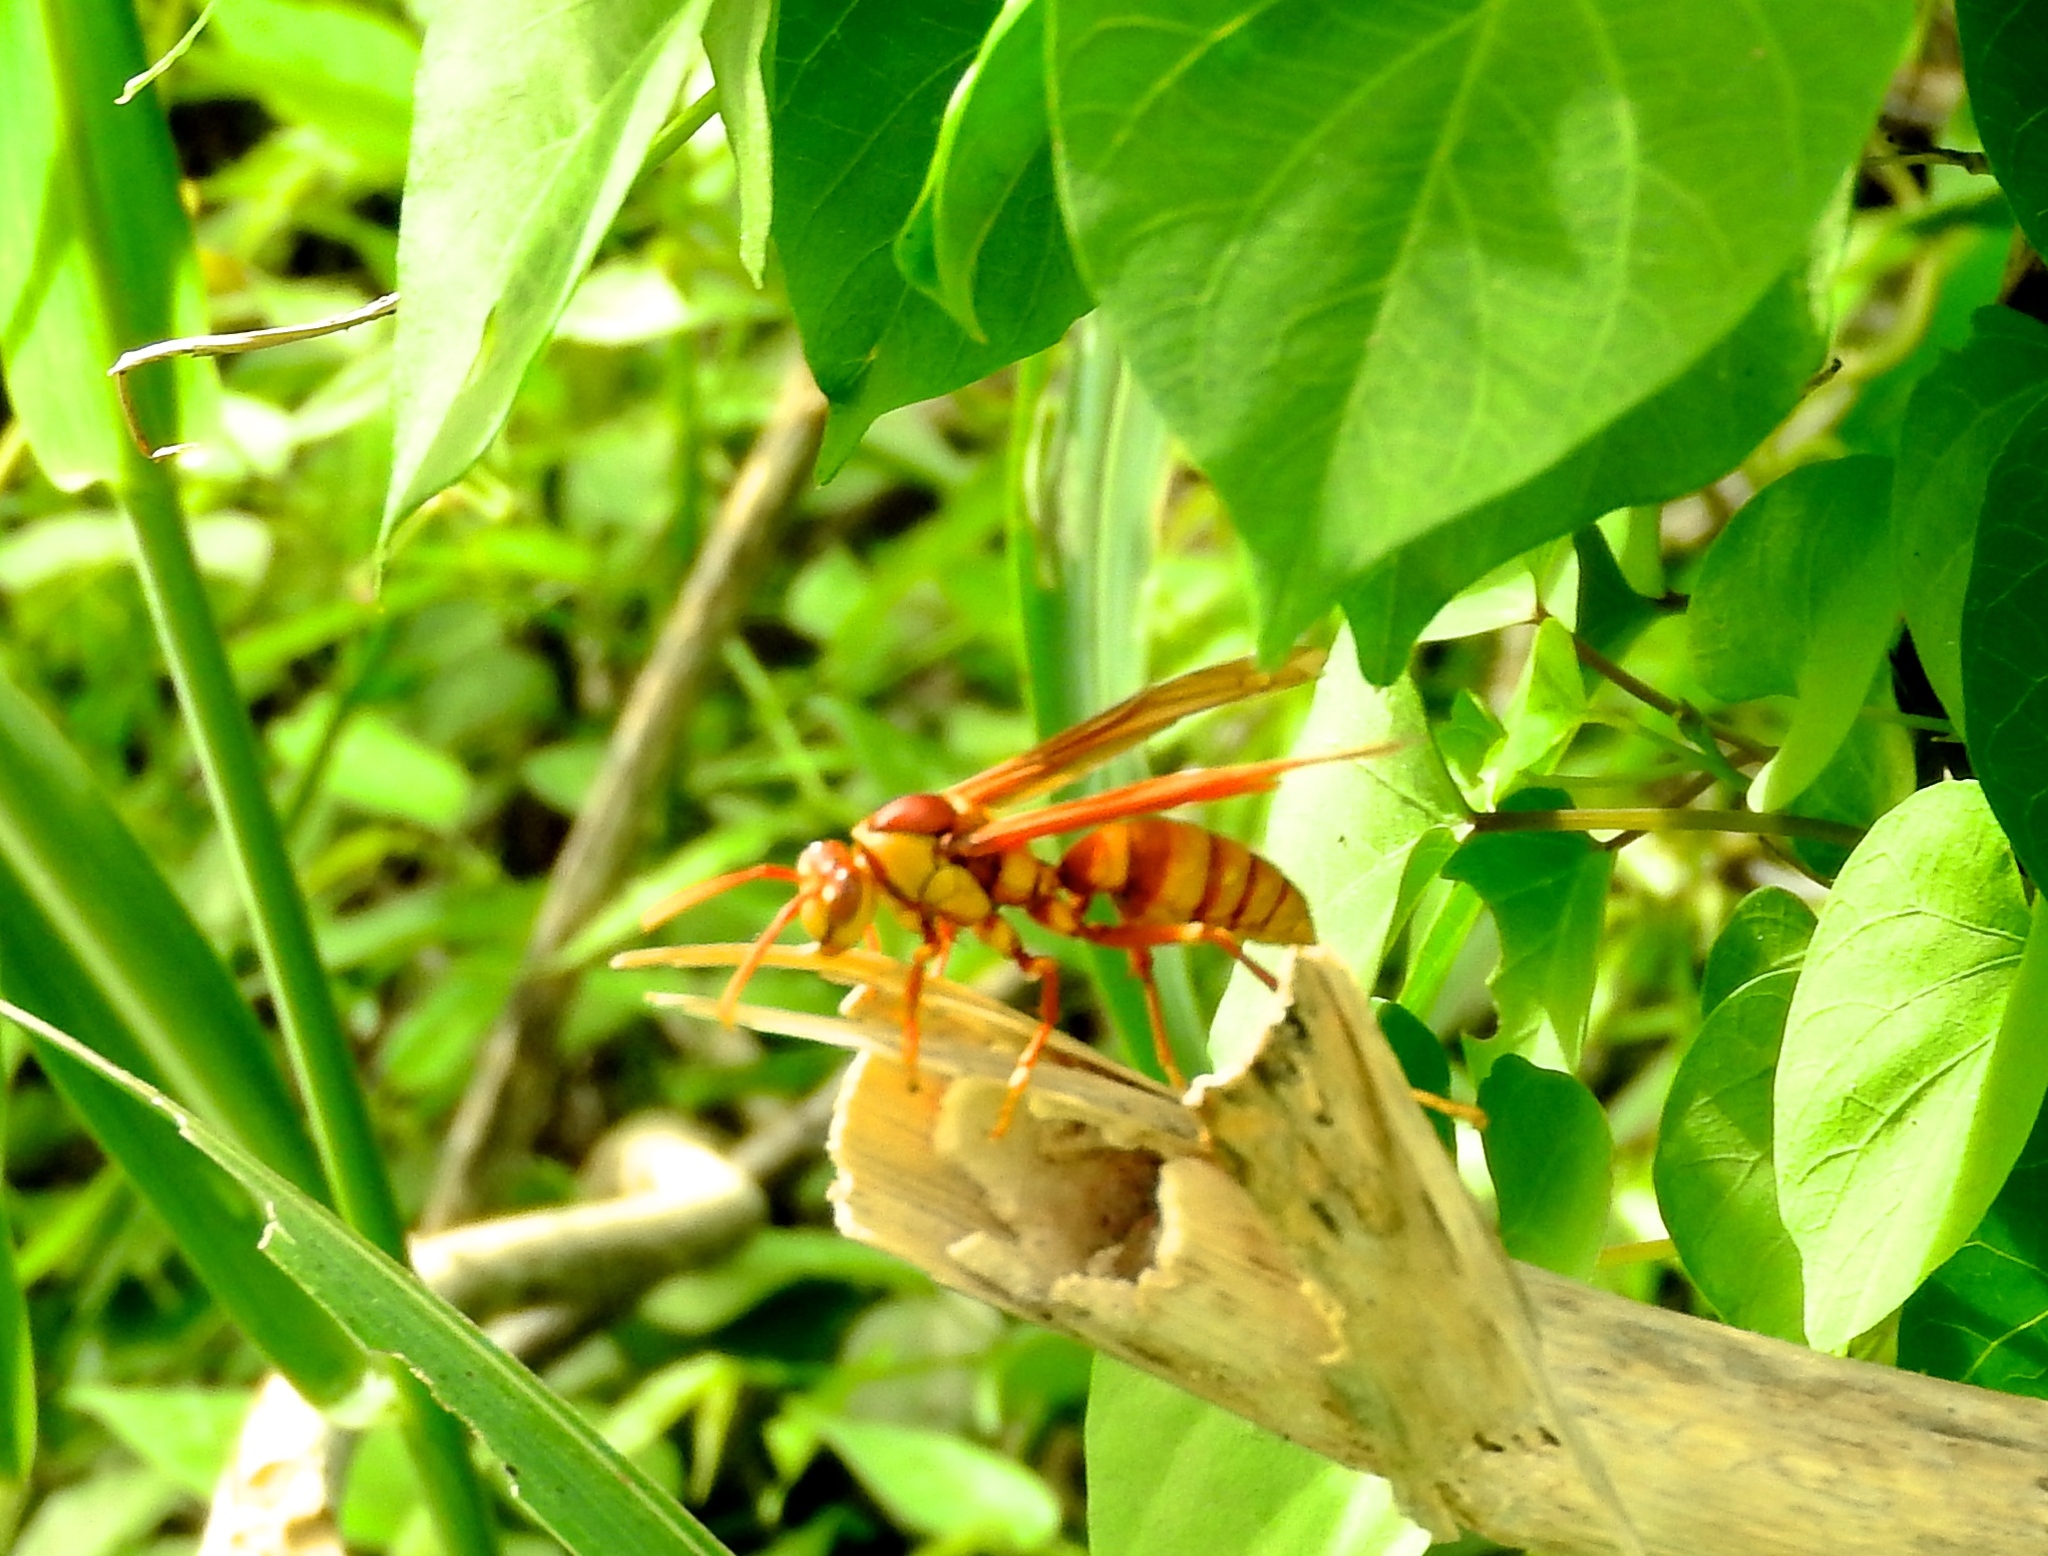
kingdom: Animalia
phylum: Arthropoda
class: Insecta
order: Hymenoptera
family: Eumenidae
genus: Polistes
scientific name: Polistes carnifex
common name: Paper wasp
